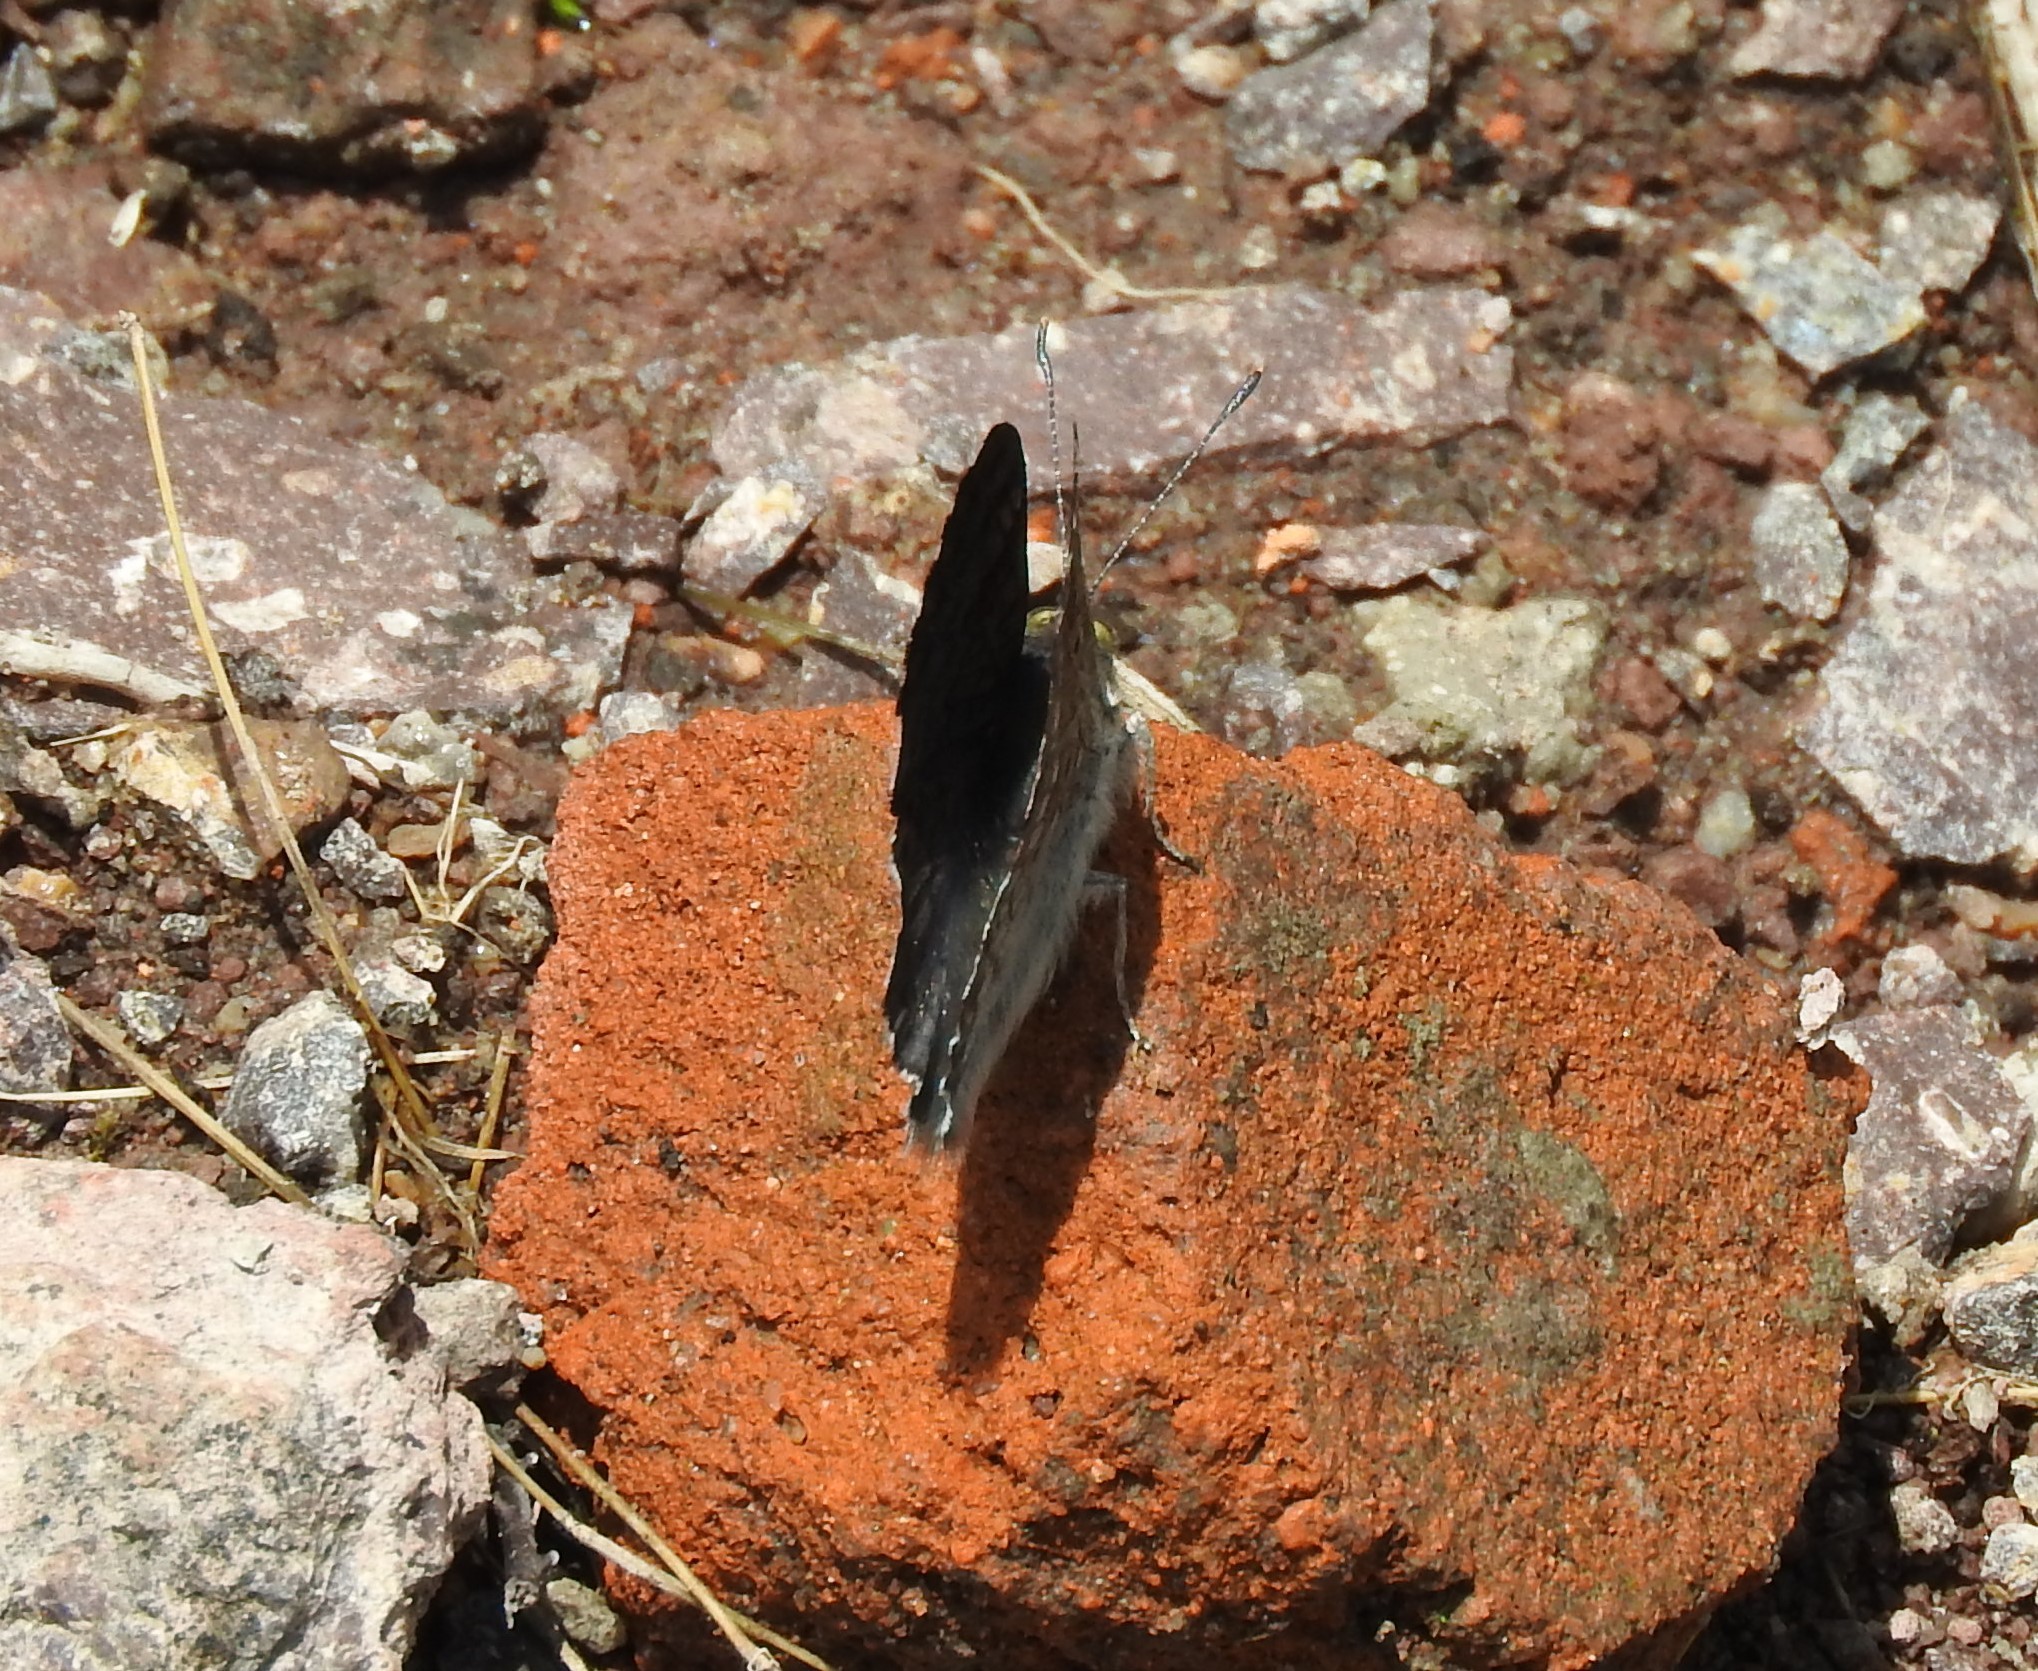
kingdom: Animalia
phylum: Arthropoda
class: Insecta
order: Lepidoptera
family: Riodinidae
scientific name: Riodinidae
